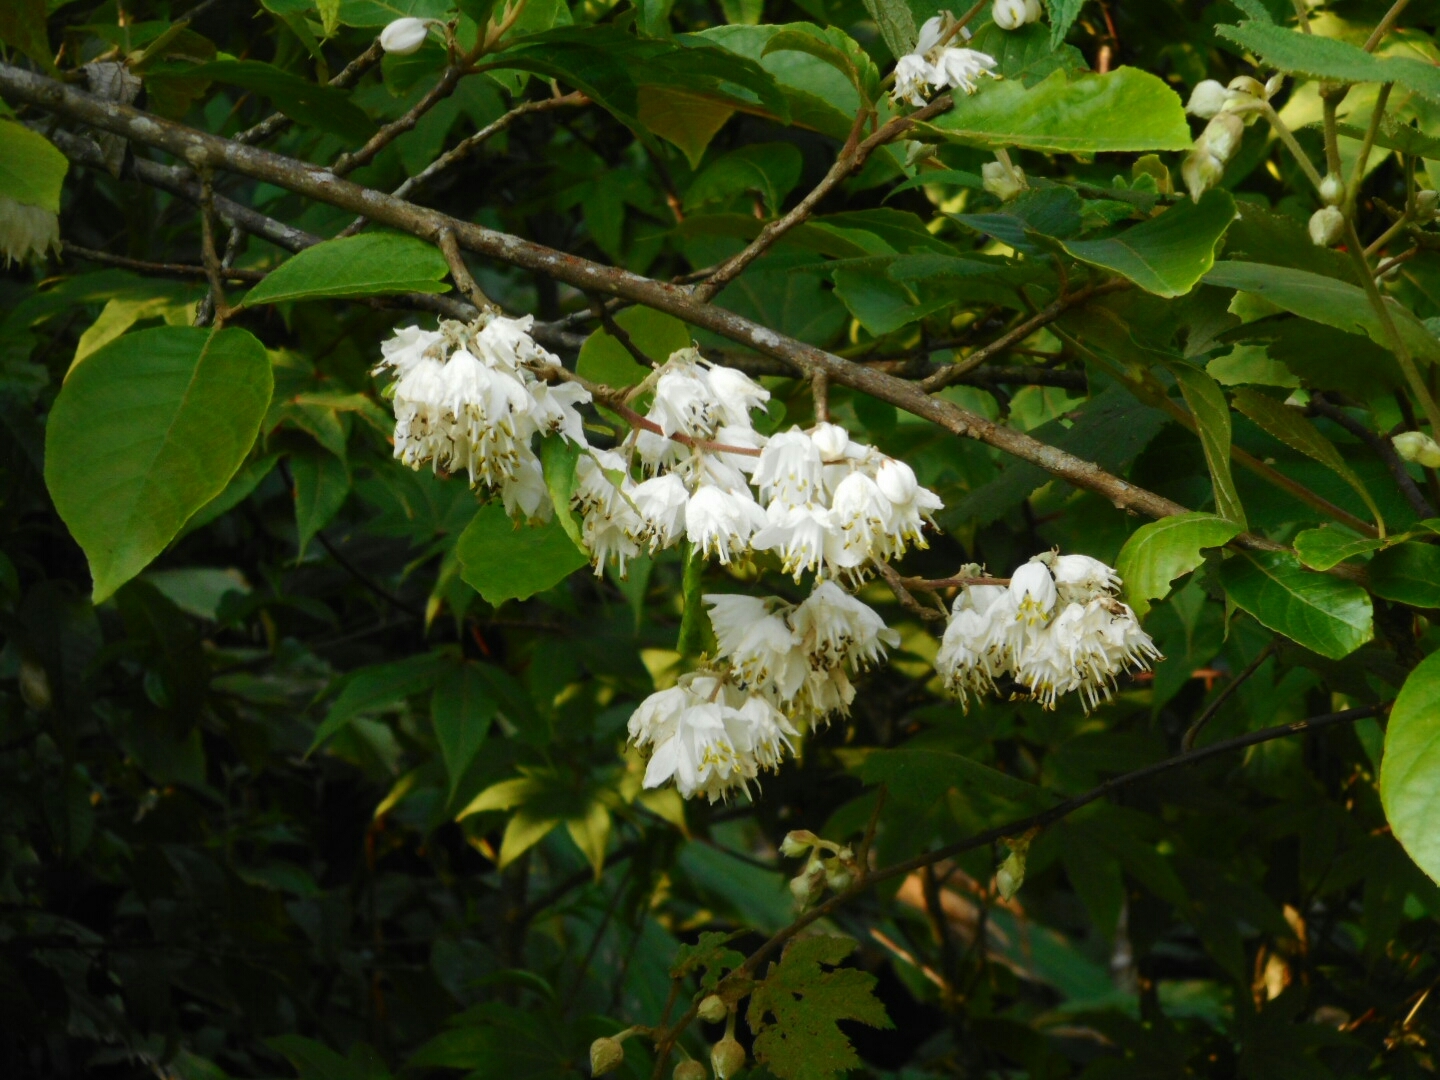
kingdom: Plantae
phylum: Tracheophyta
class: Magnoliopsida
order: Ericales
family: Styracaceae
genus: Alniphyllum
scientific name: Alniphyllum pterospermum
